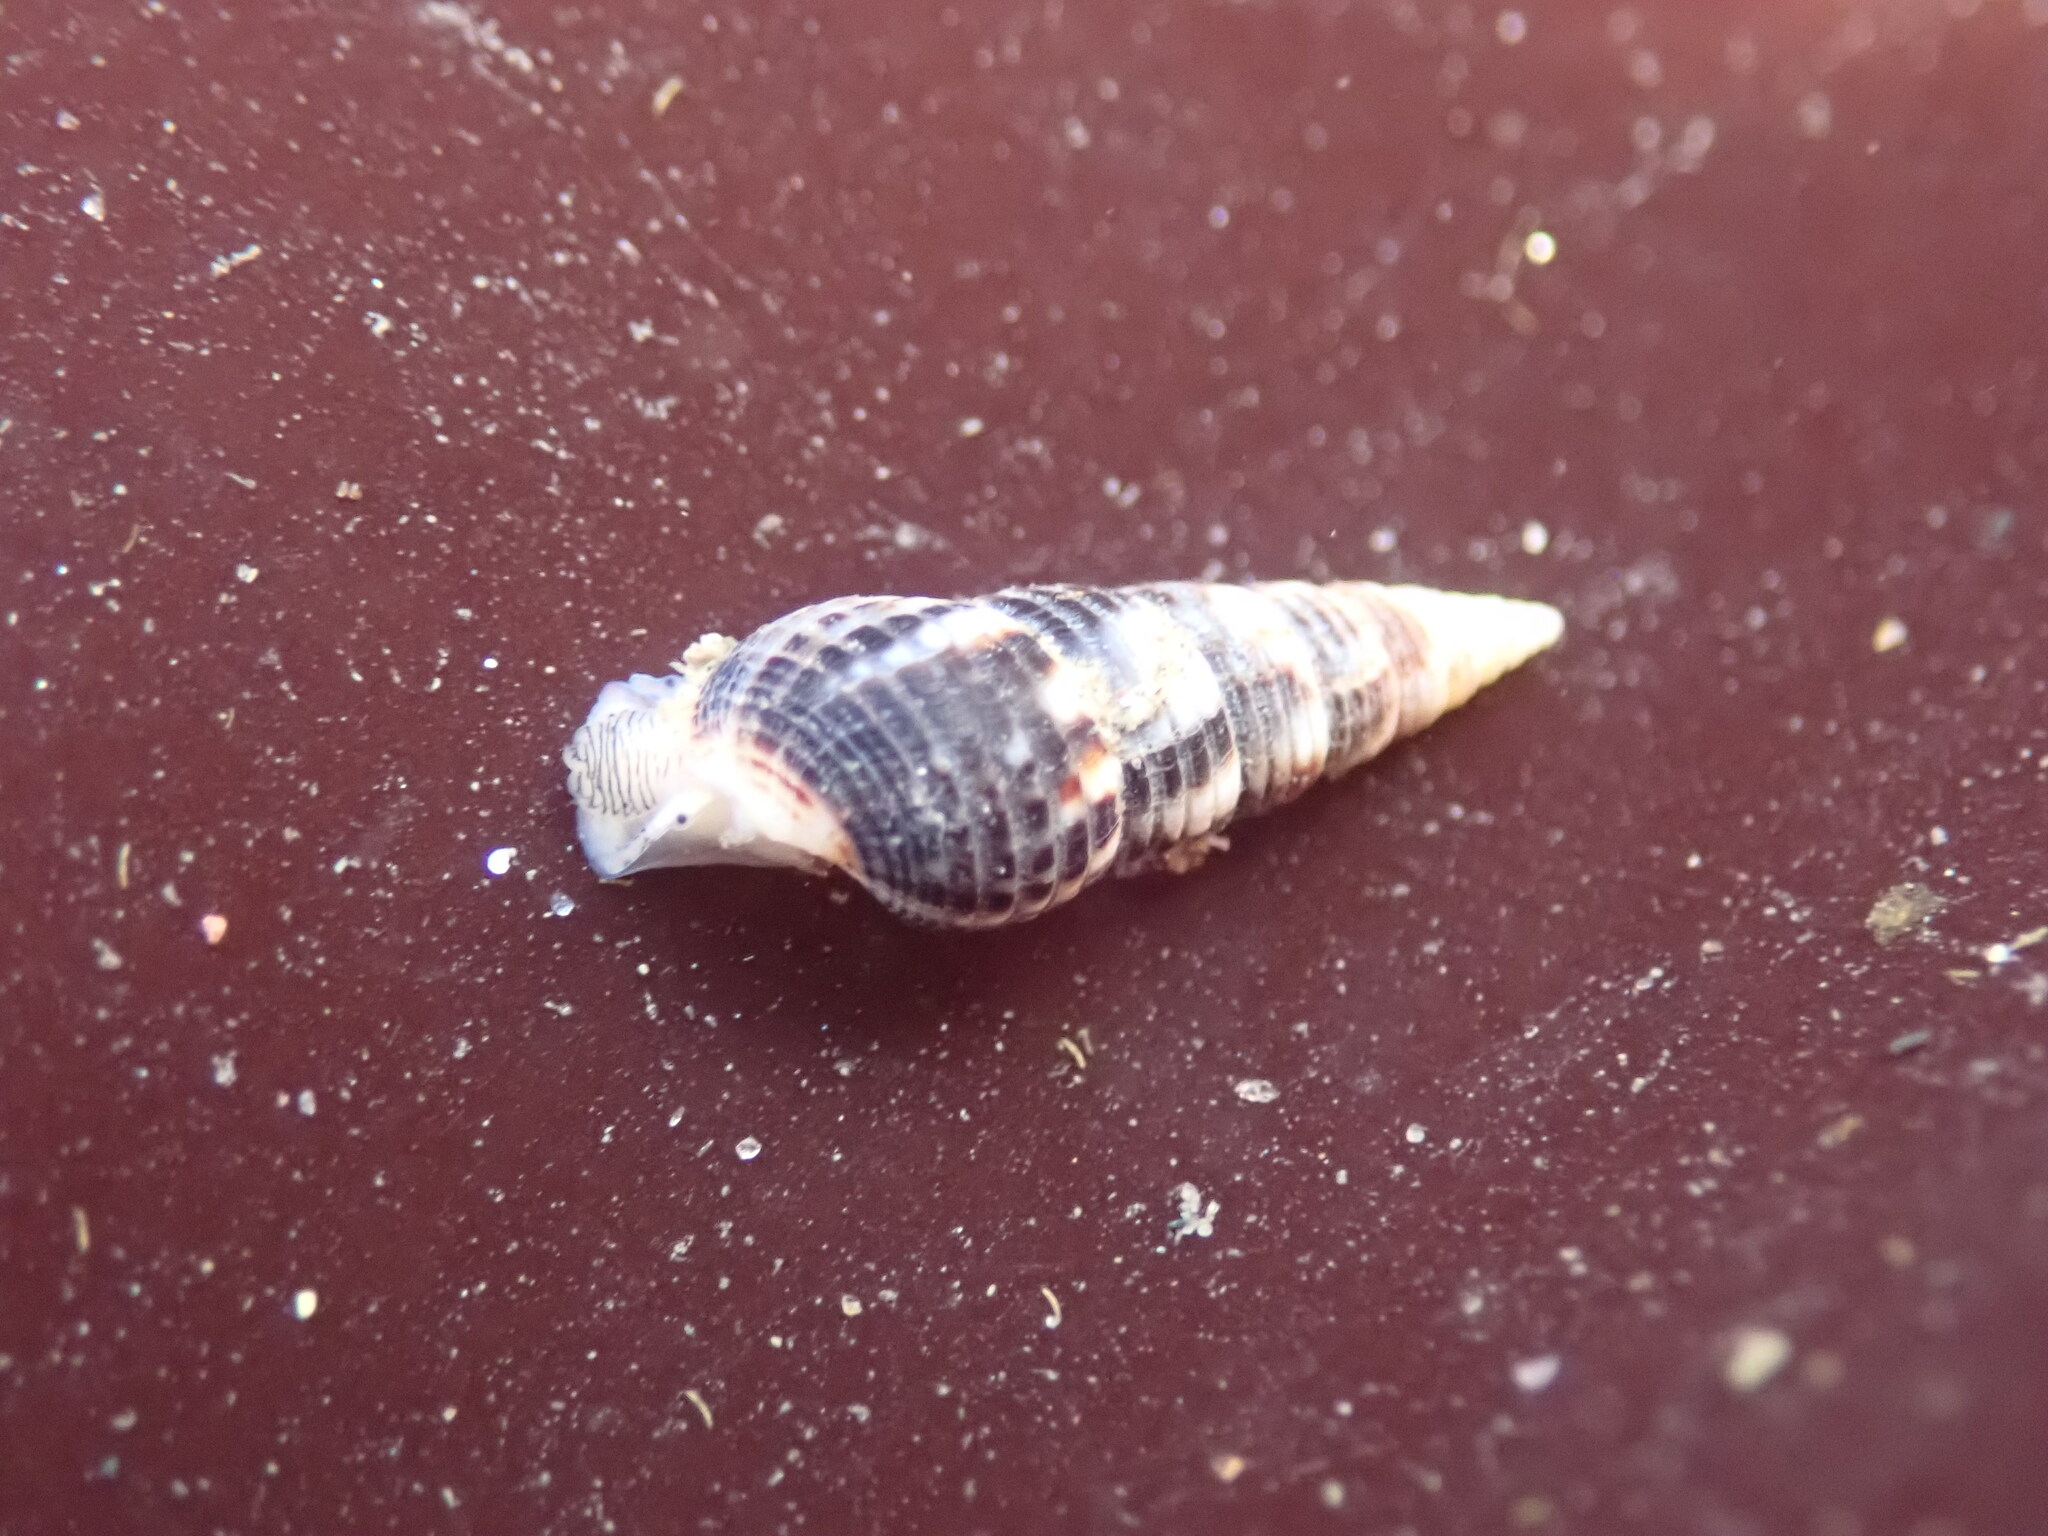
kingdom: Animalia
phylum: Mollusca
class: Gastropoda
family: Cerithiidae
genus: Neostylidium
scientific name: Neostylidium eschrichtii
